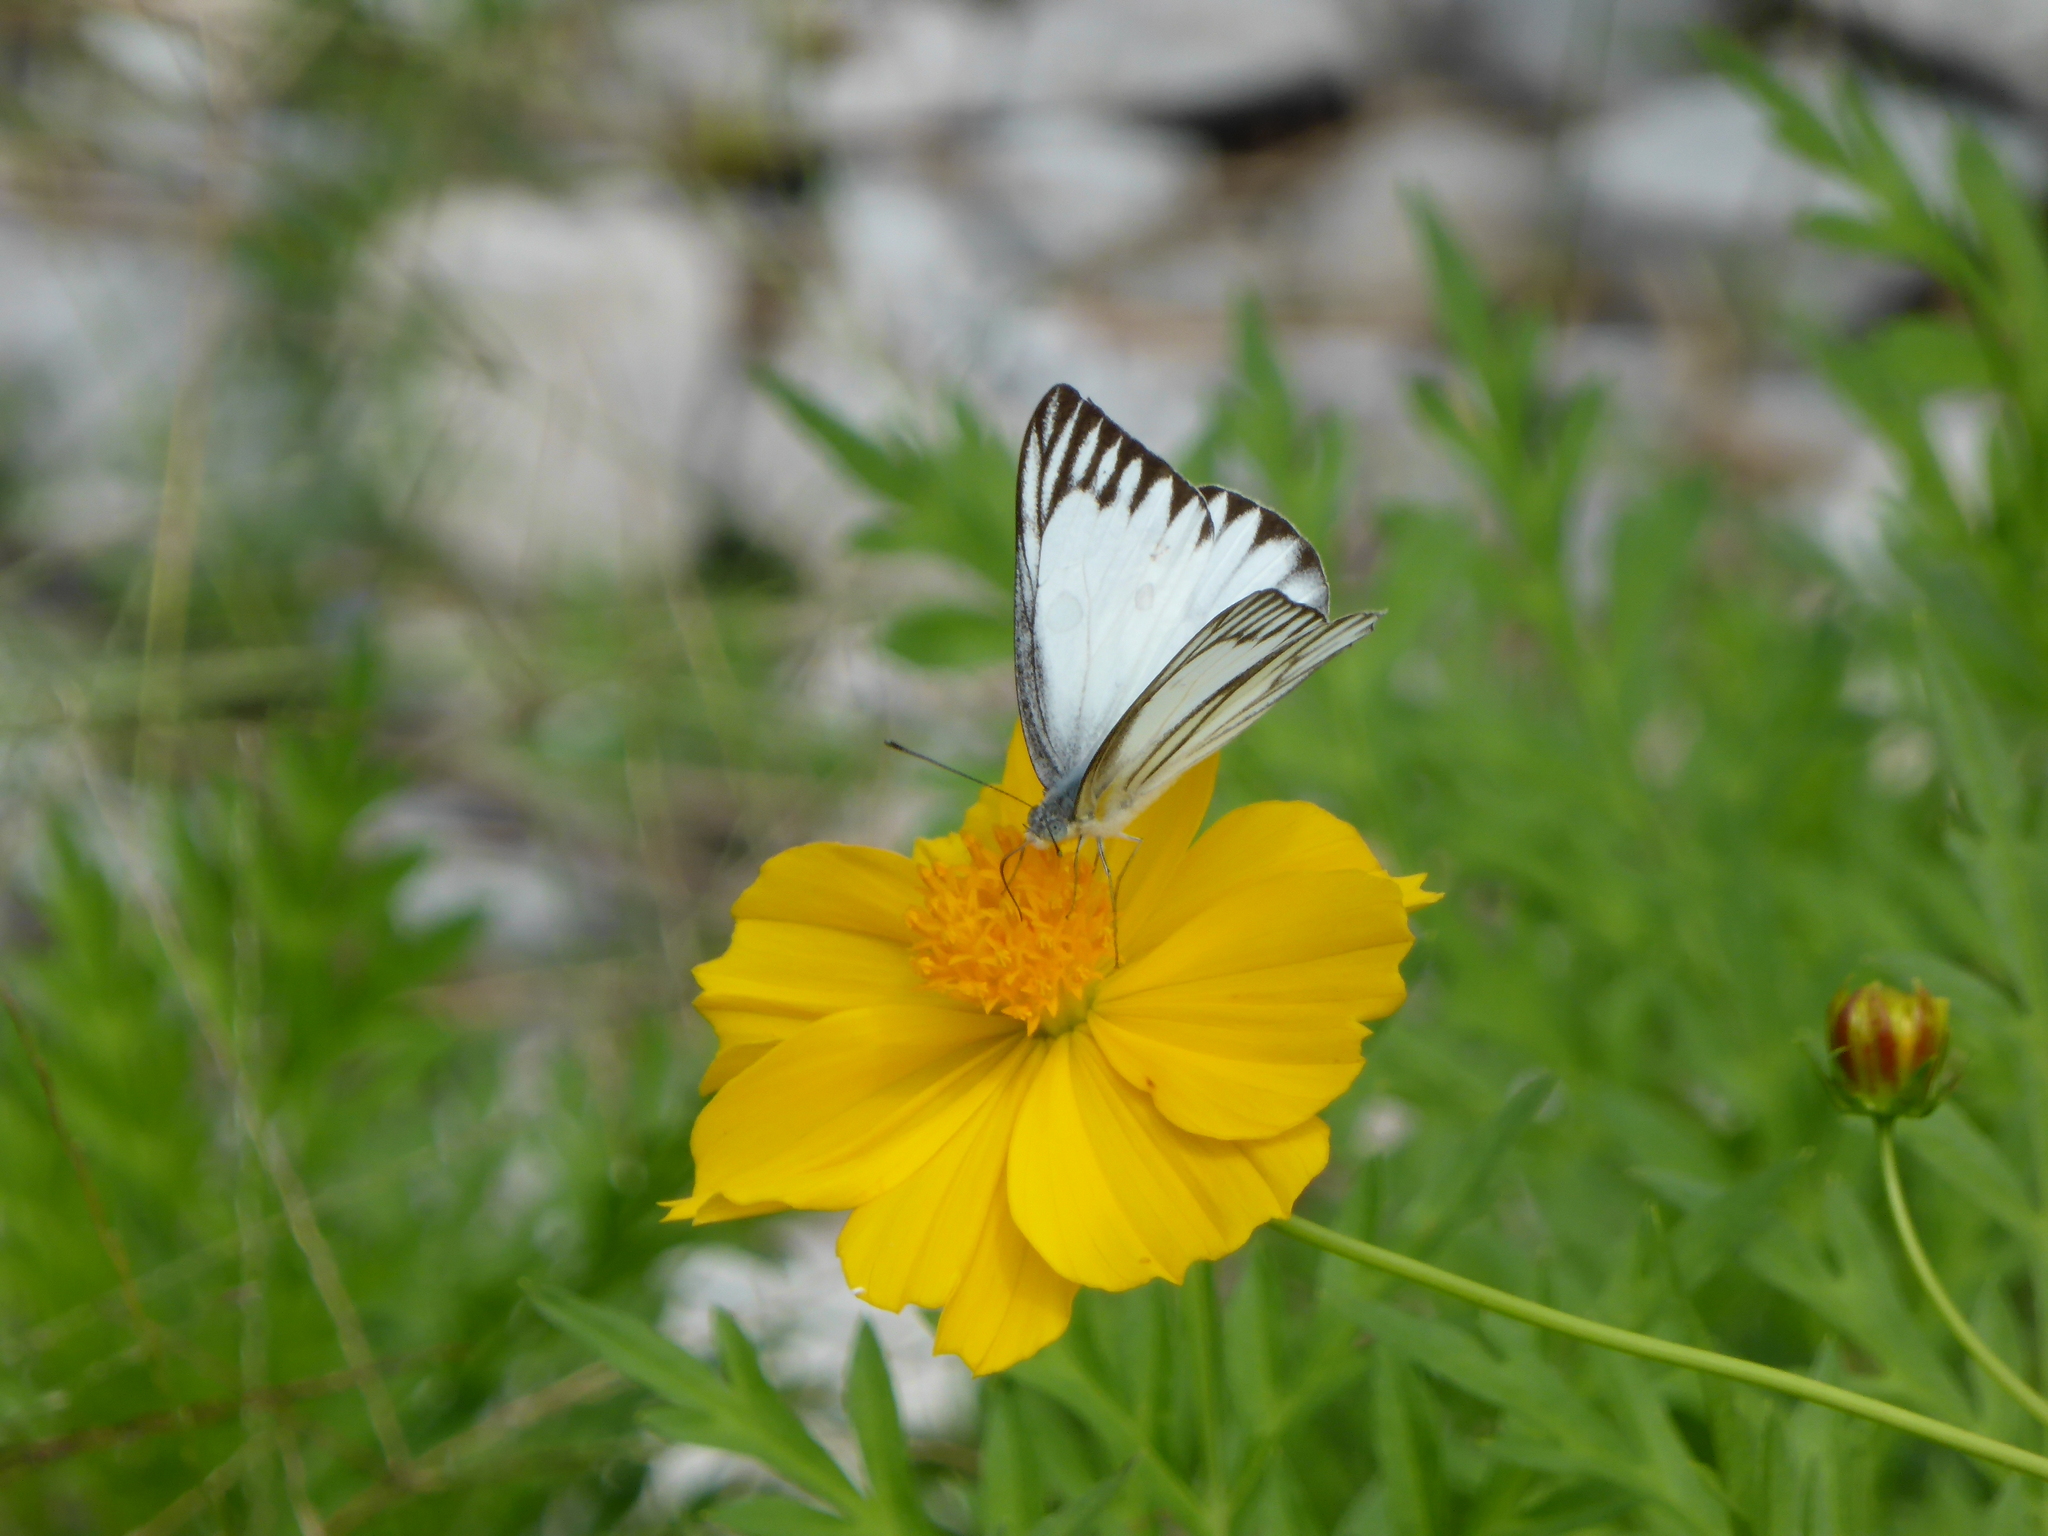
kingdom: Animalia
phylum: Arthropoda
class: Insecta
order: Lepidoptera
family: Pieridae
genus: Appias
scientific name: Appias libythea
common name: Striped albatross
